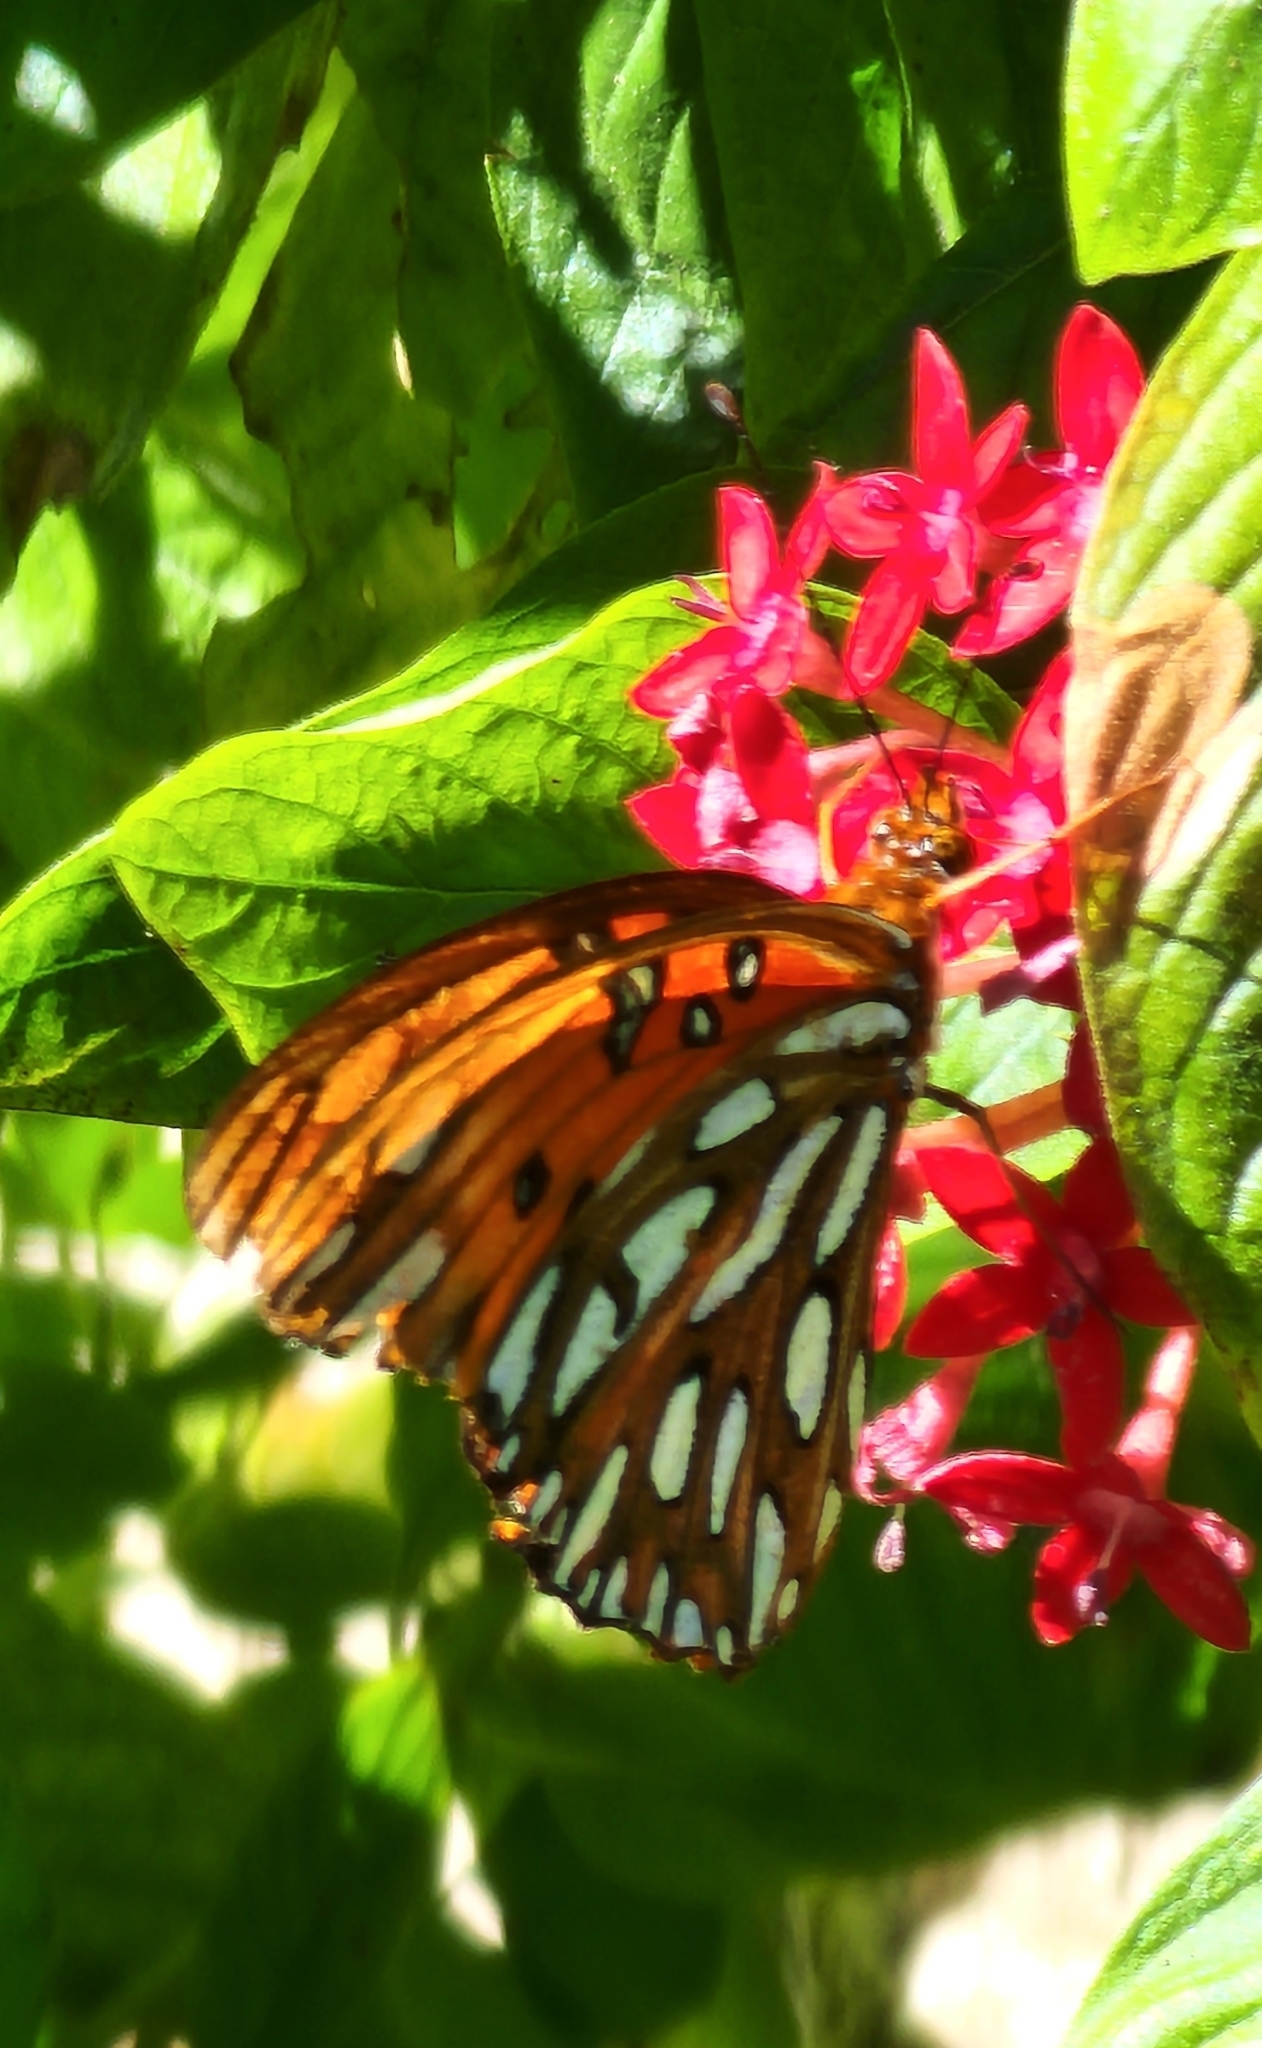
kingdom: Animalia
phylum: Arthropoda
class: Insecta
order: Lepidoptera
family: Nymphalidae
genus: Dione
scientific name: Dione vanillae
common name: Gulf fritillary
